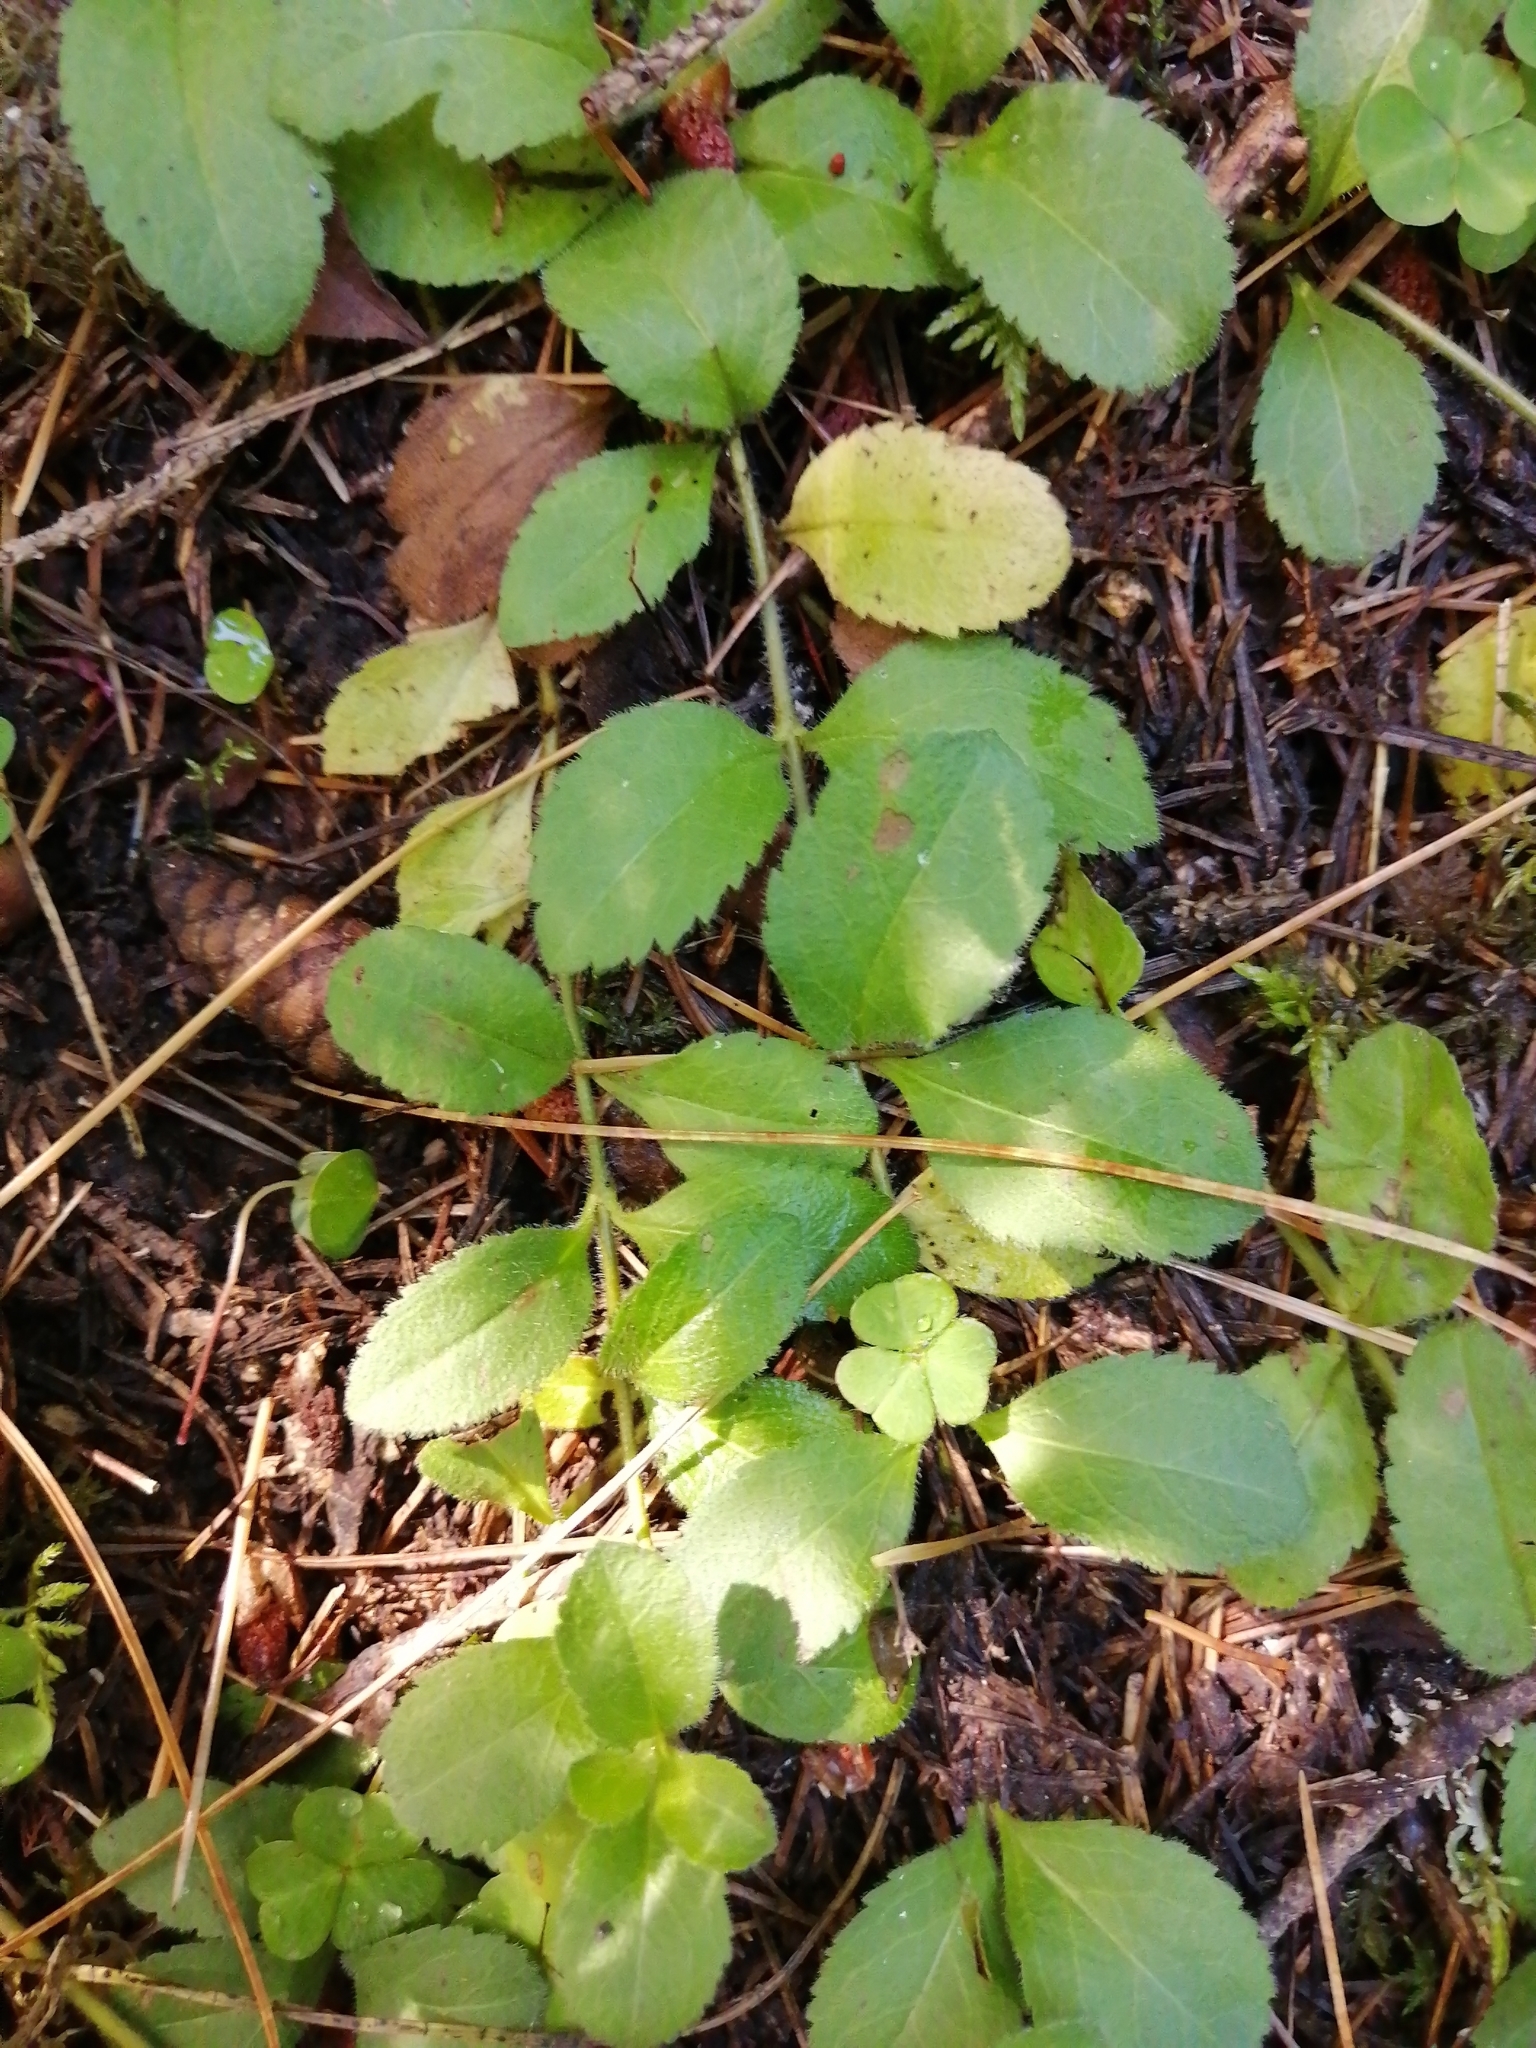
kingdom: Plantae
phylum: Tracheophyta
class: Magnoliopsida
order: Lamiales
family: Plantaginaceae
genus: Veronica
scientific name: Veronica officinalis
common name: Common speedwell
